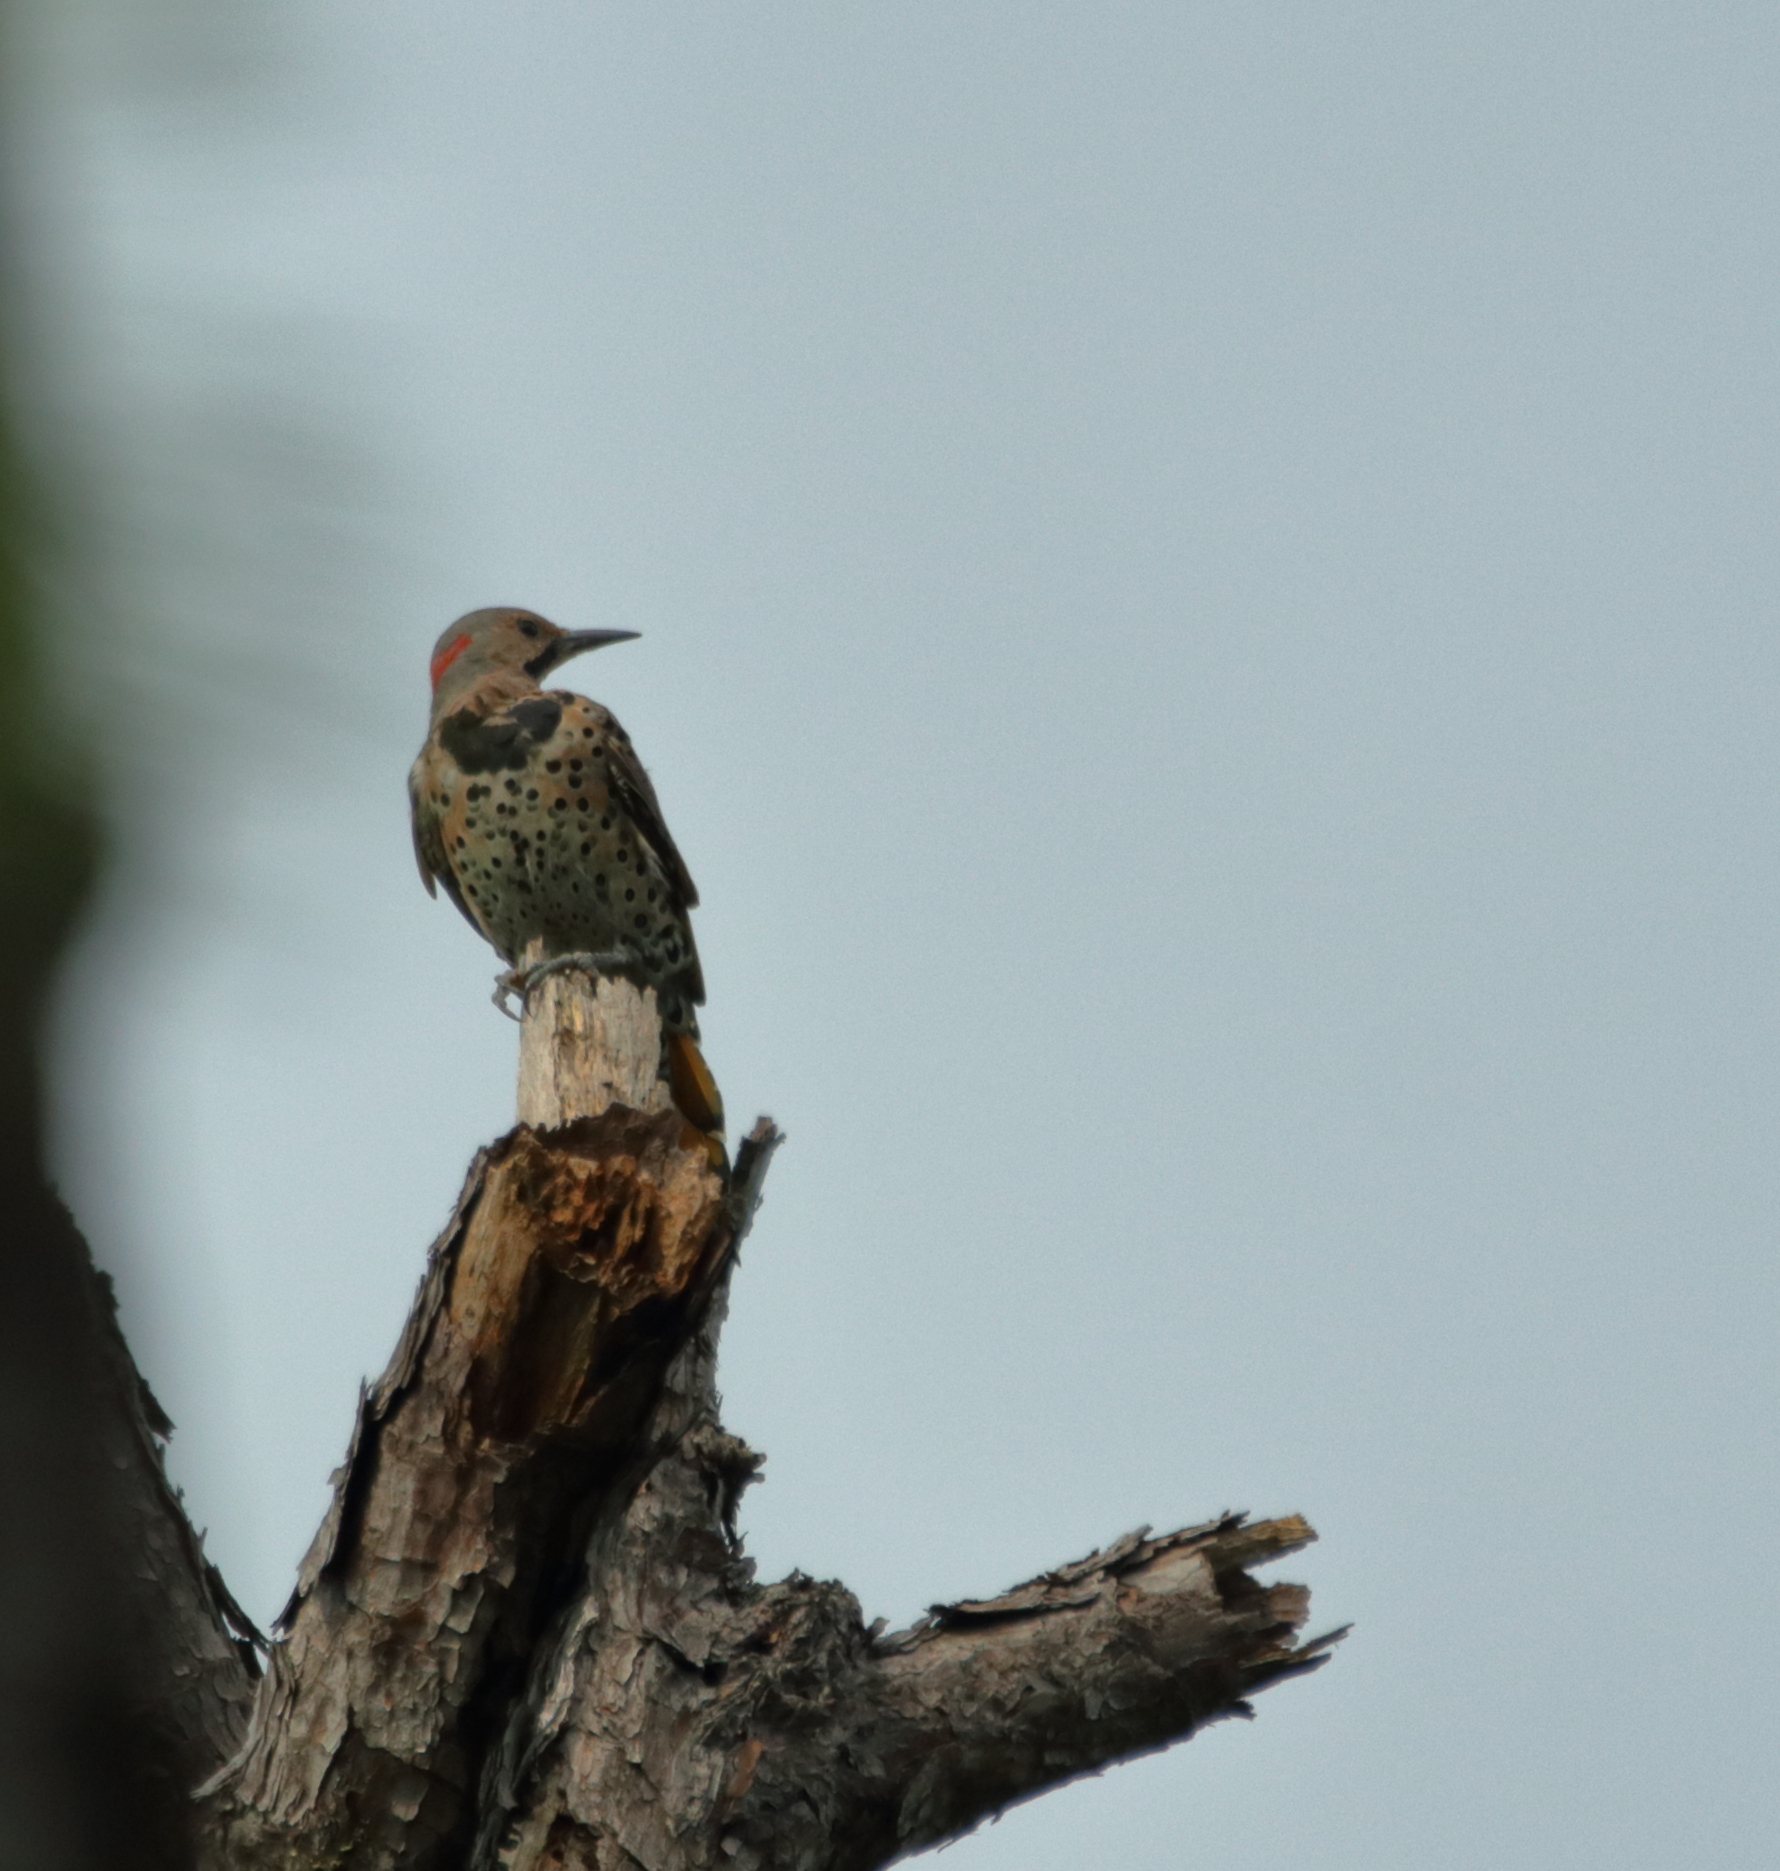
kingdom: Animalia
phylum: Chordata
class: Aves
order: Piciformes
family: Picidae
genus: Colaptes
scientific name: Colaptes auratus
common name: Northern flicker
